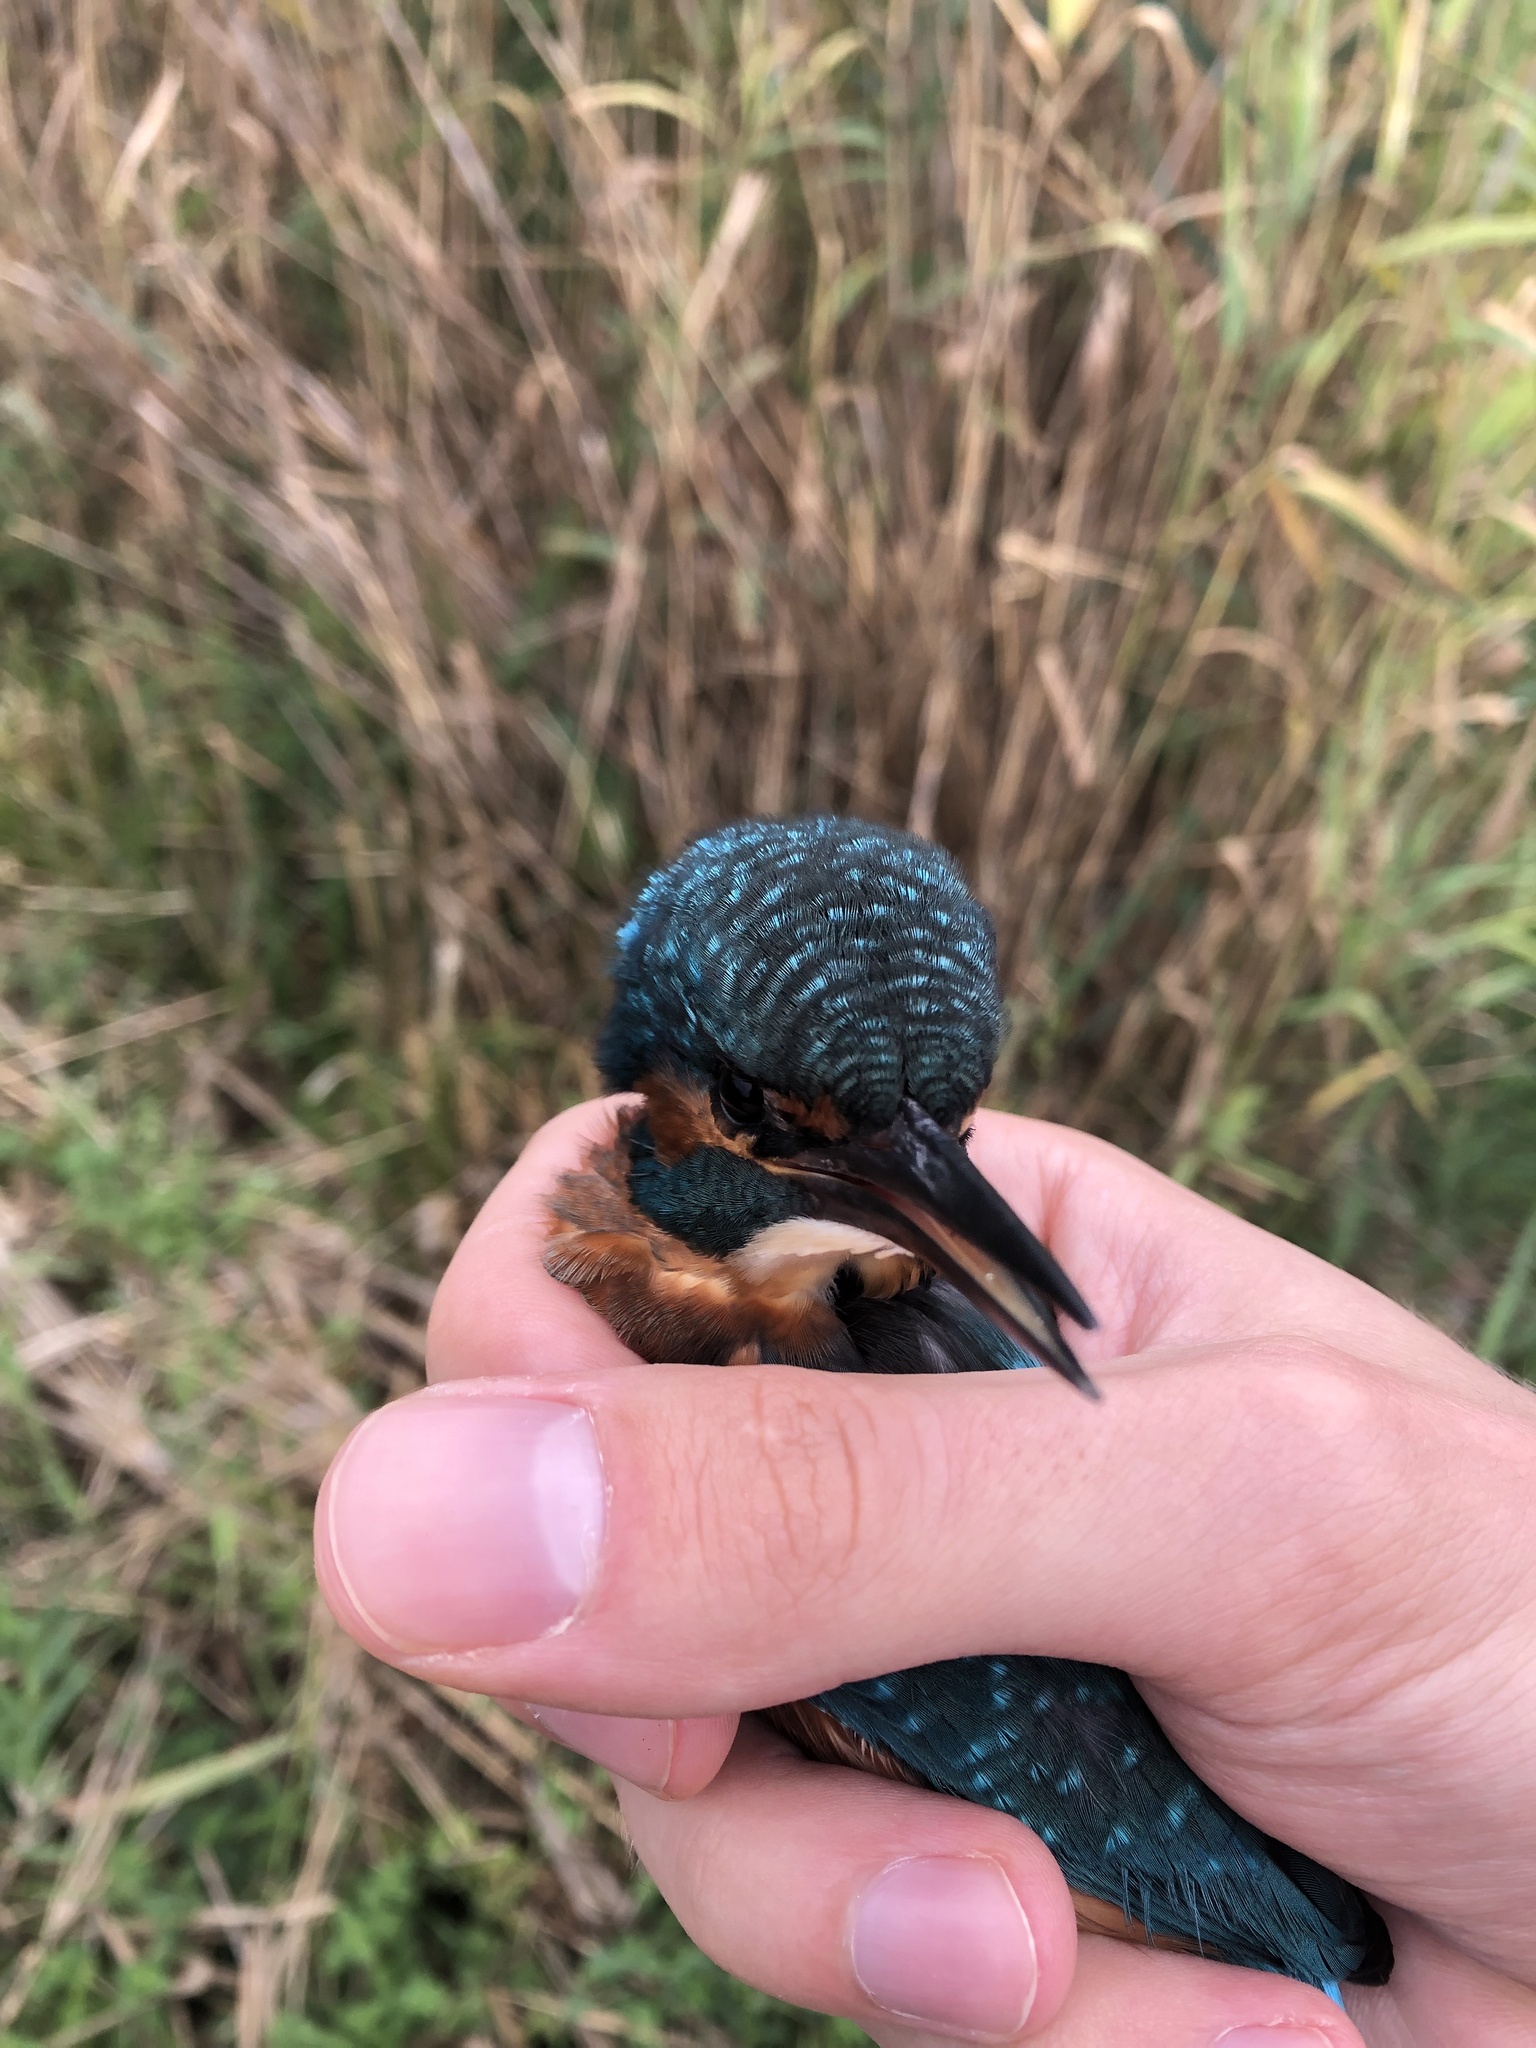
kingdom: Animalia
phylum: Chordata
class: Aves
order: Coraciiformes
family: Alcedinidae
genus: Alcedo
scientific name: Alcedo atthis
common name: Common kingfisher
